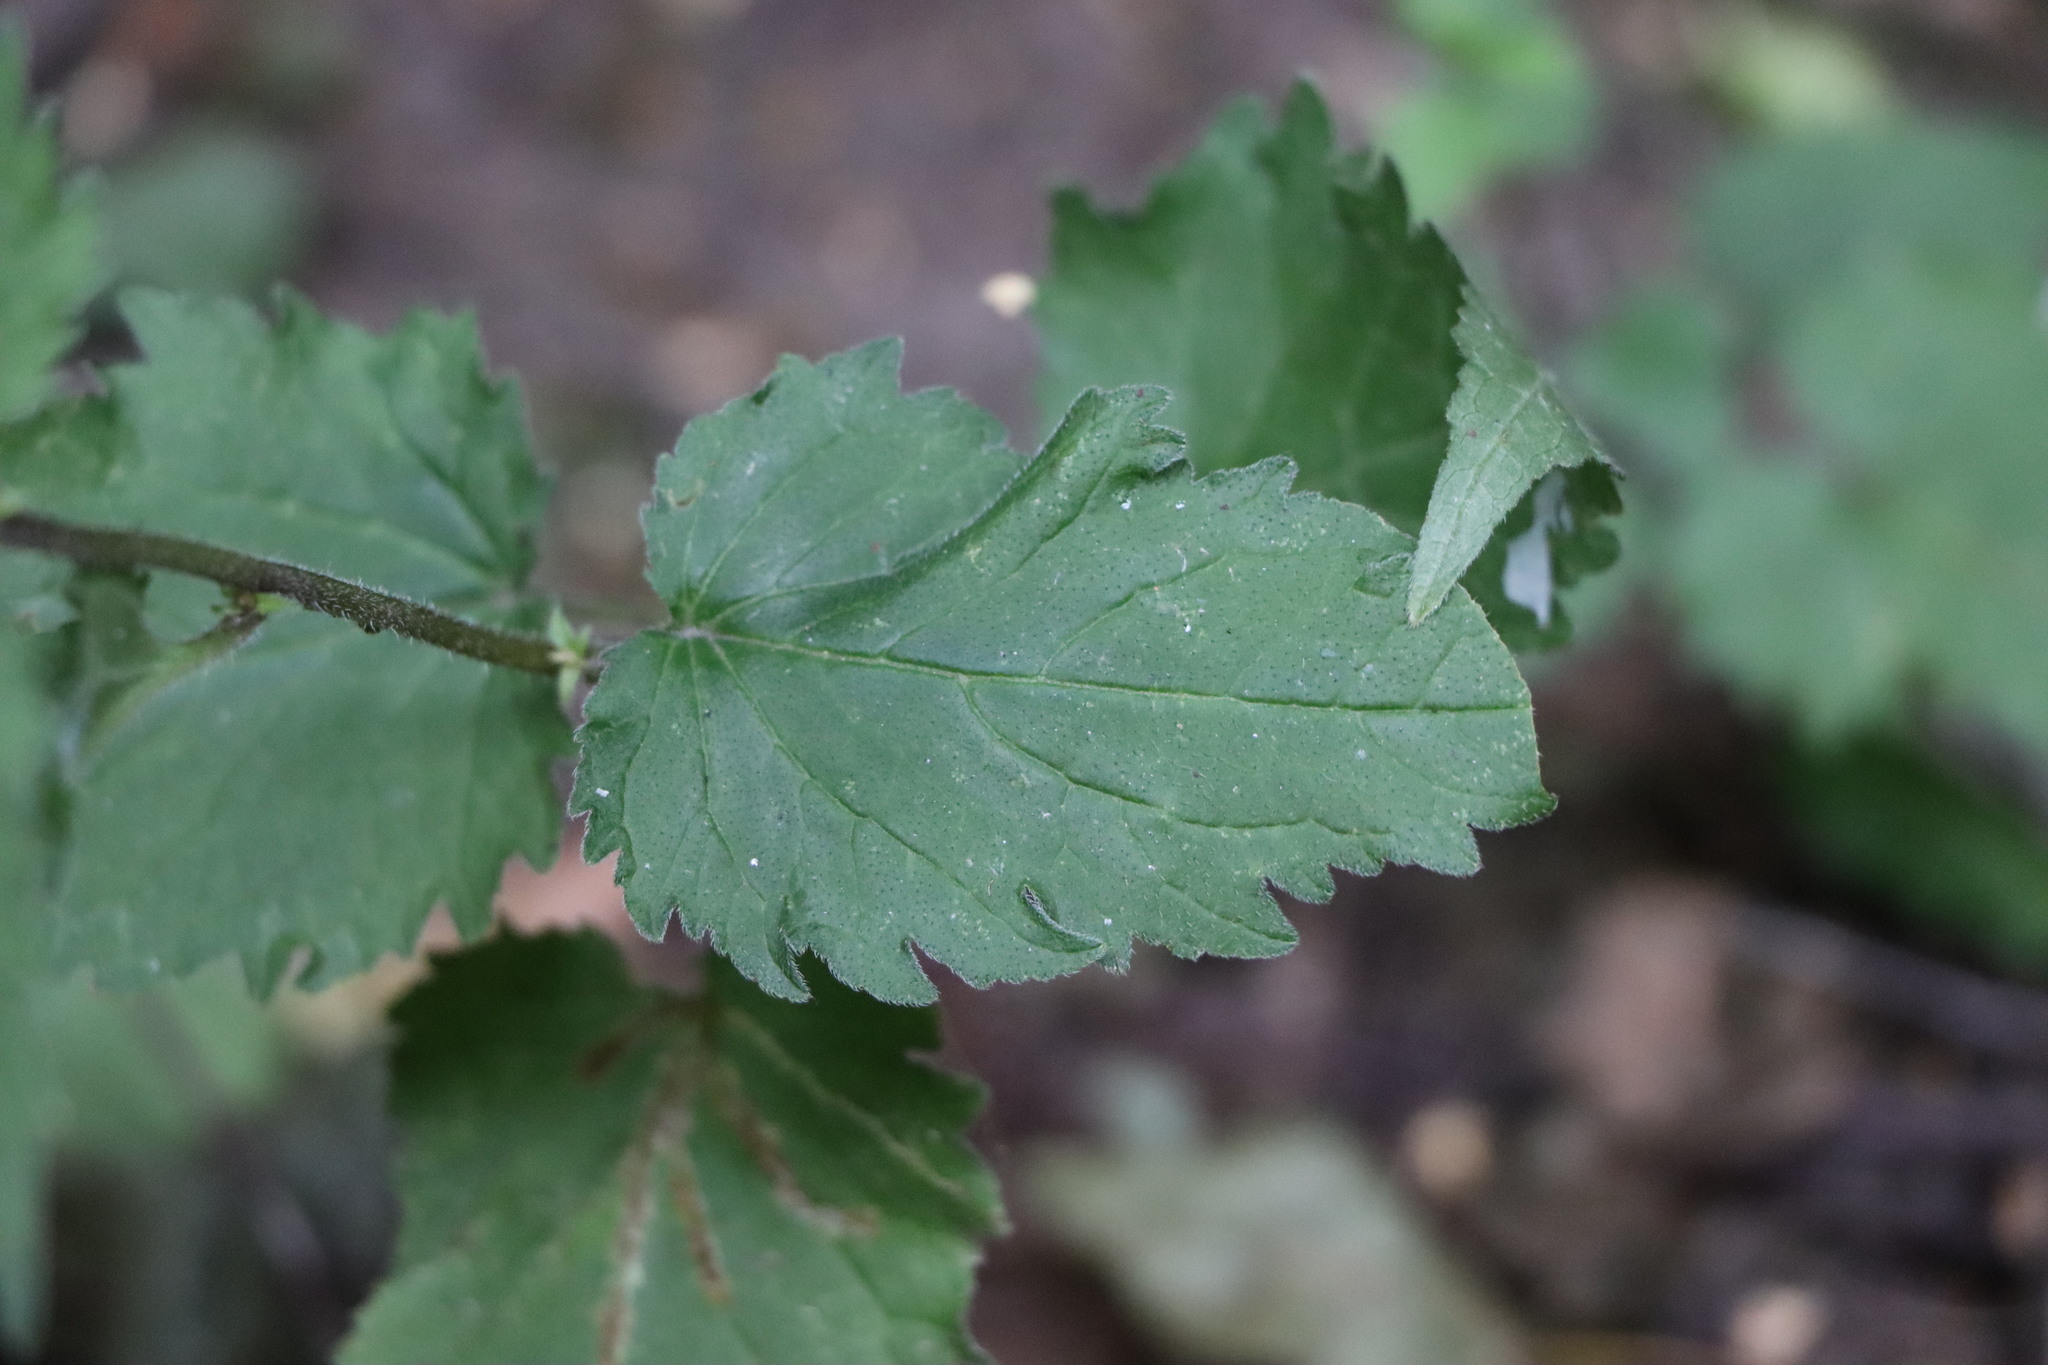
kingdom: Plantae
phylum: Tracheophyta
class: Magnoliopsida
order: Asterales
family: Campanulaceae
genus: Campanula
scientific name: Campanula trachelium
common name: Nettle-leaved bellflower
